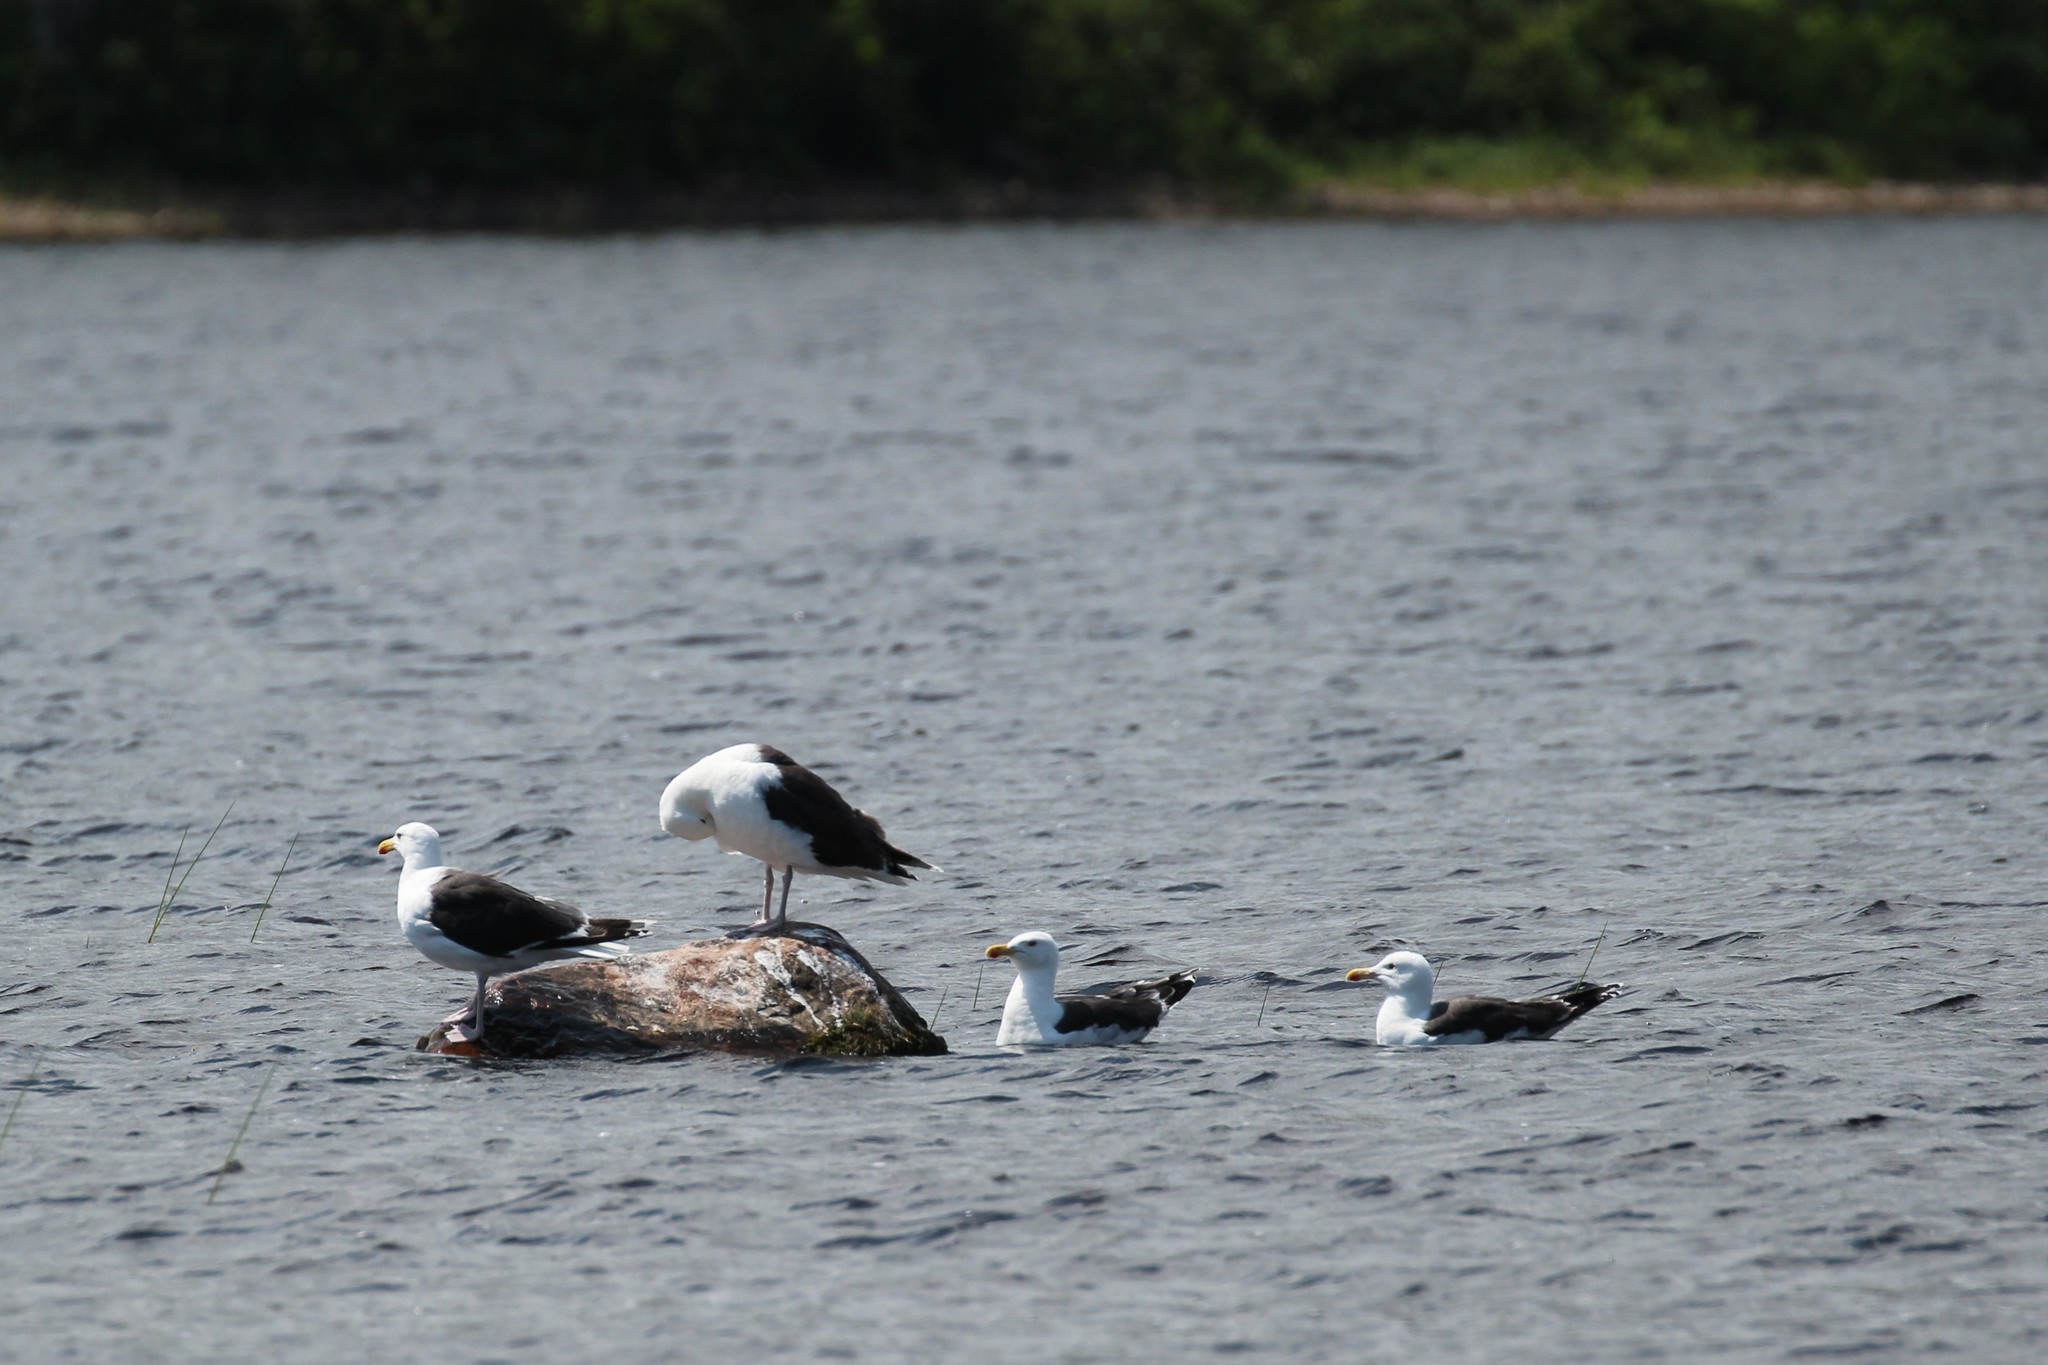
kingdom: Animalia
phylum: Chordata
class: Aves
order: Charadriiformes
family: Laridae
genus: Larus
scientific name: Larus marinus
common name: Great black-backed gull
